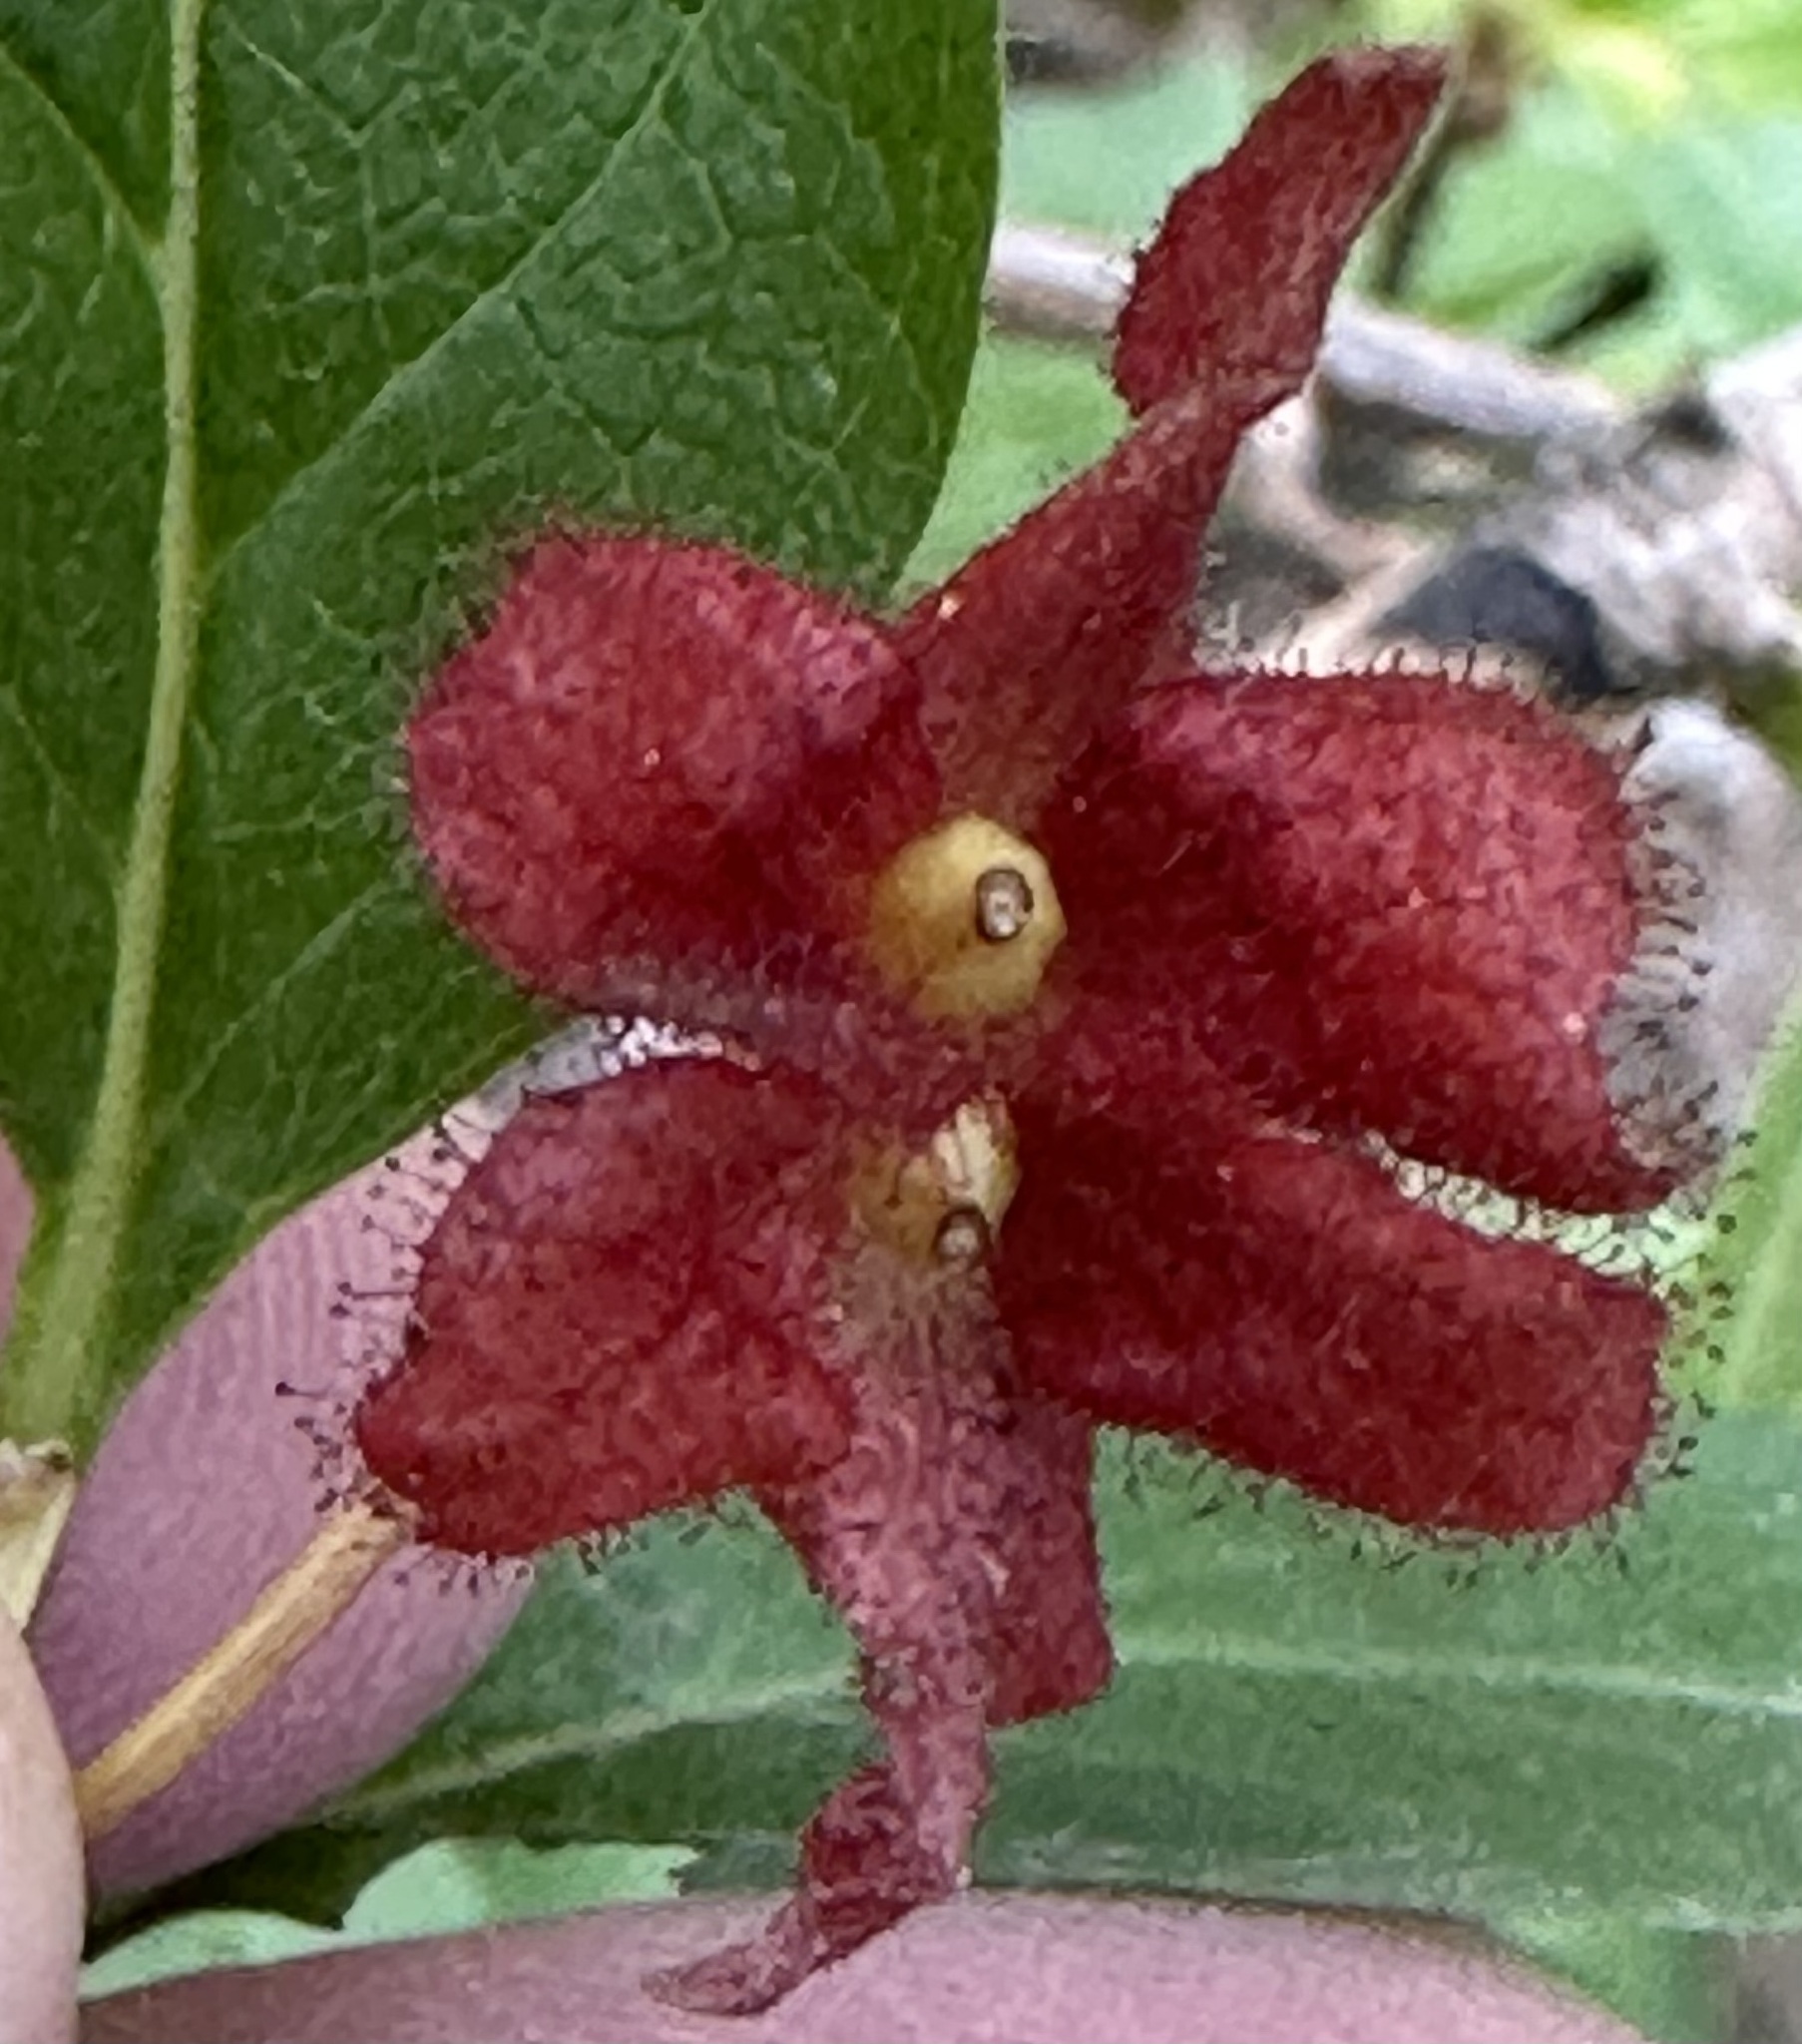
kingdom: Plantae
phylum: Tracheophyta
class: Magnoliopsida
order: Dipsacales
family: Caprifoliaceae
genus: Lonicera
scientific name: Lonicera involucrata
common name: Californian honeysuckle
